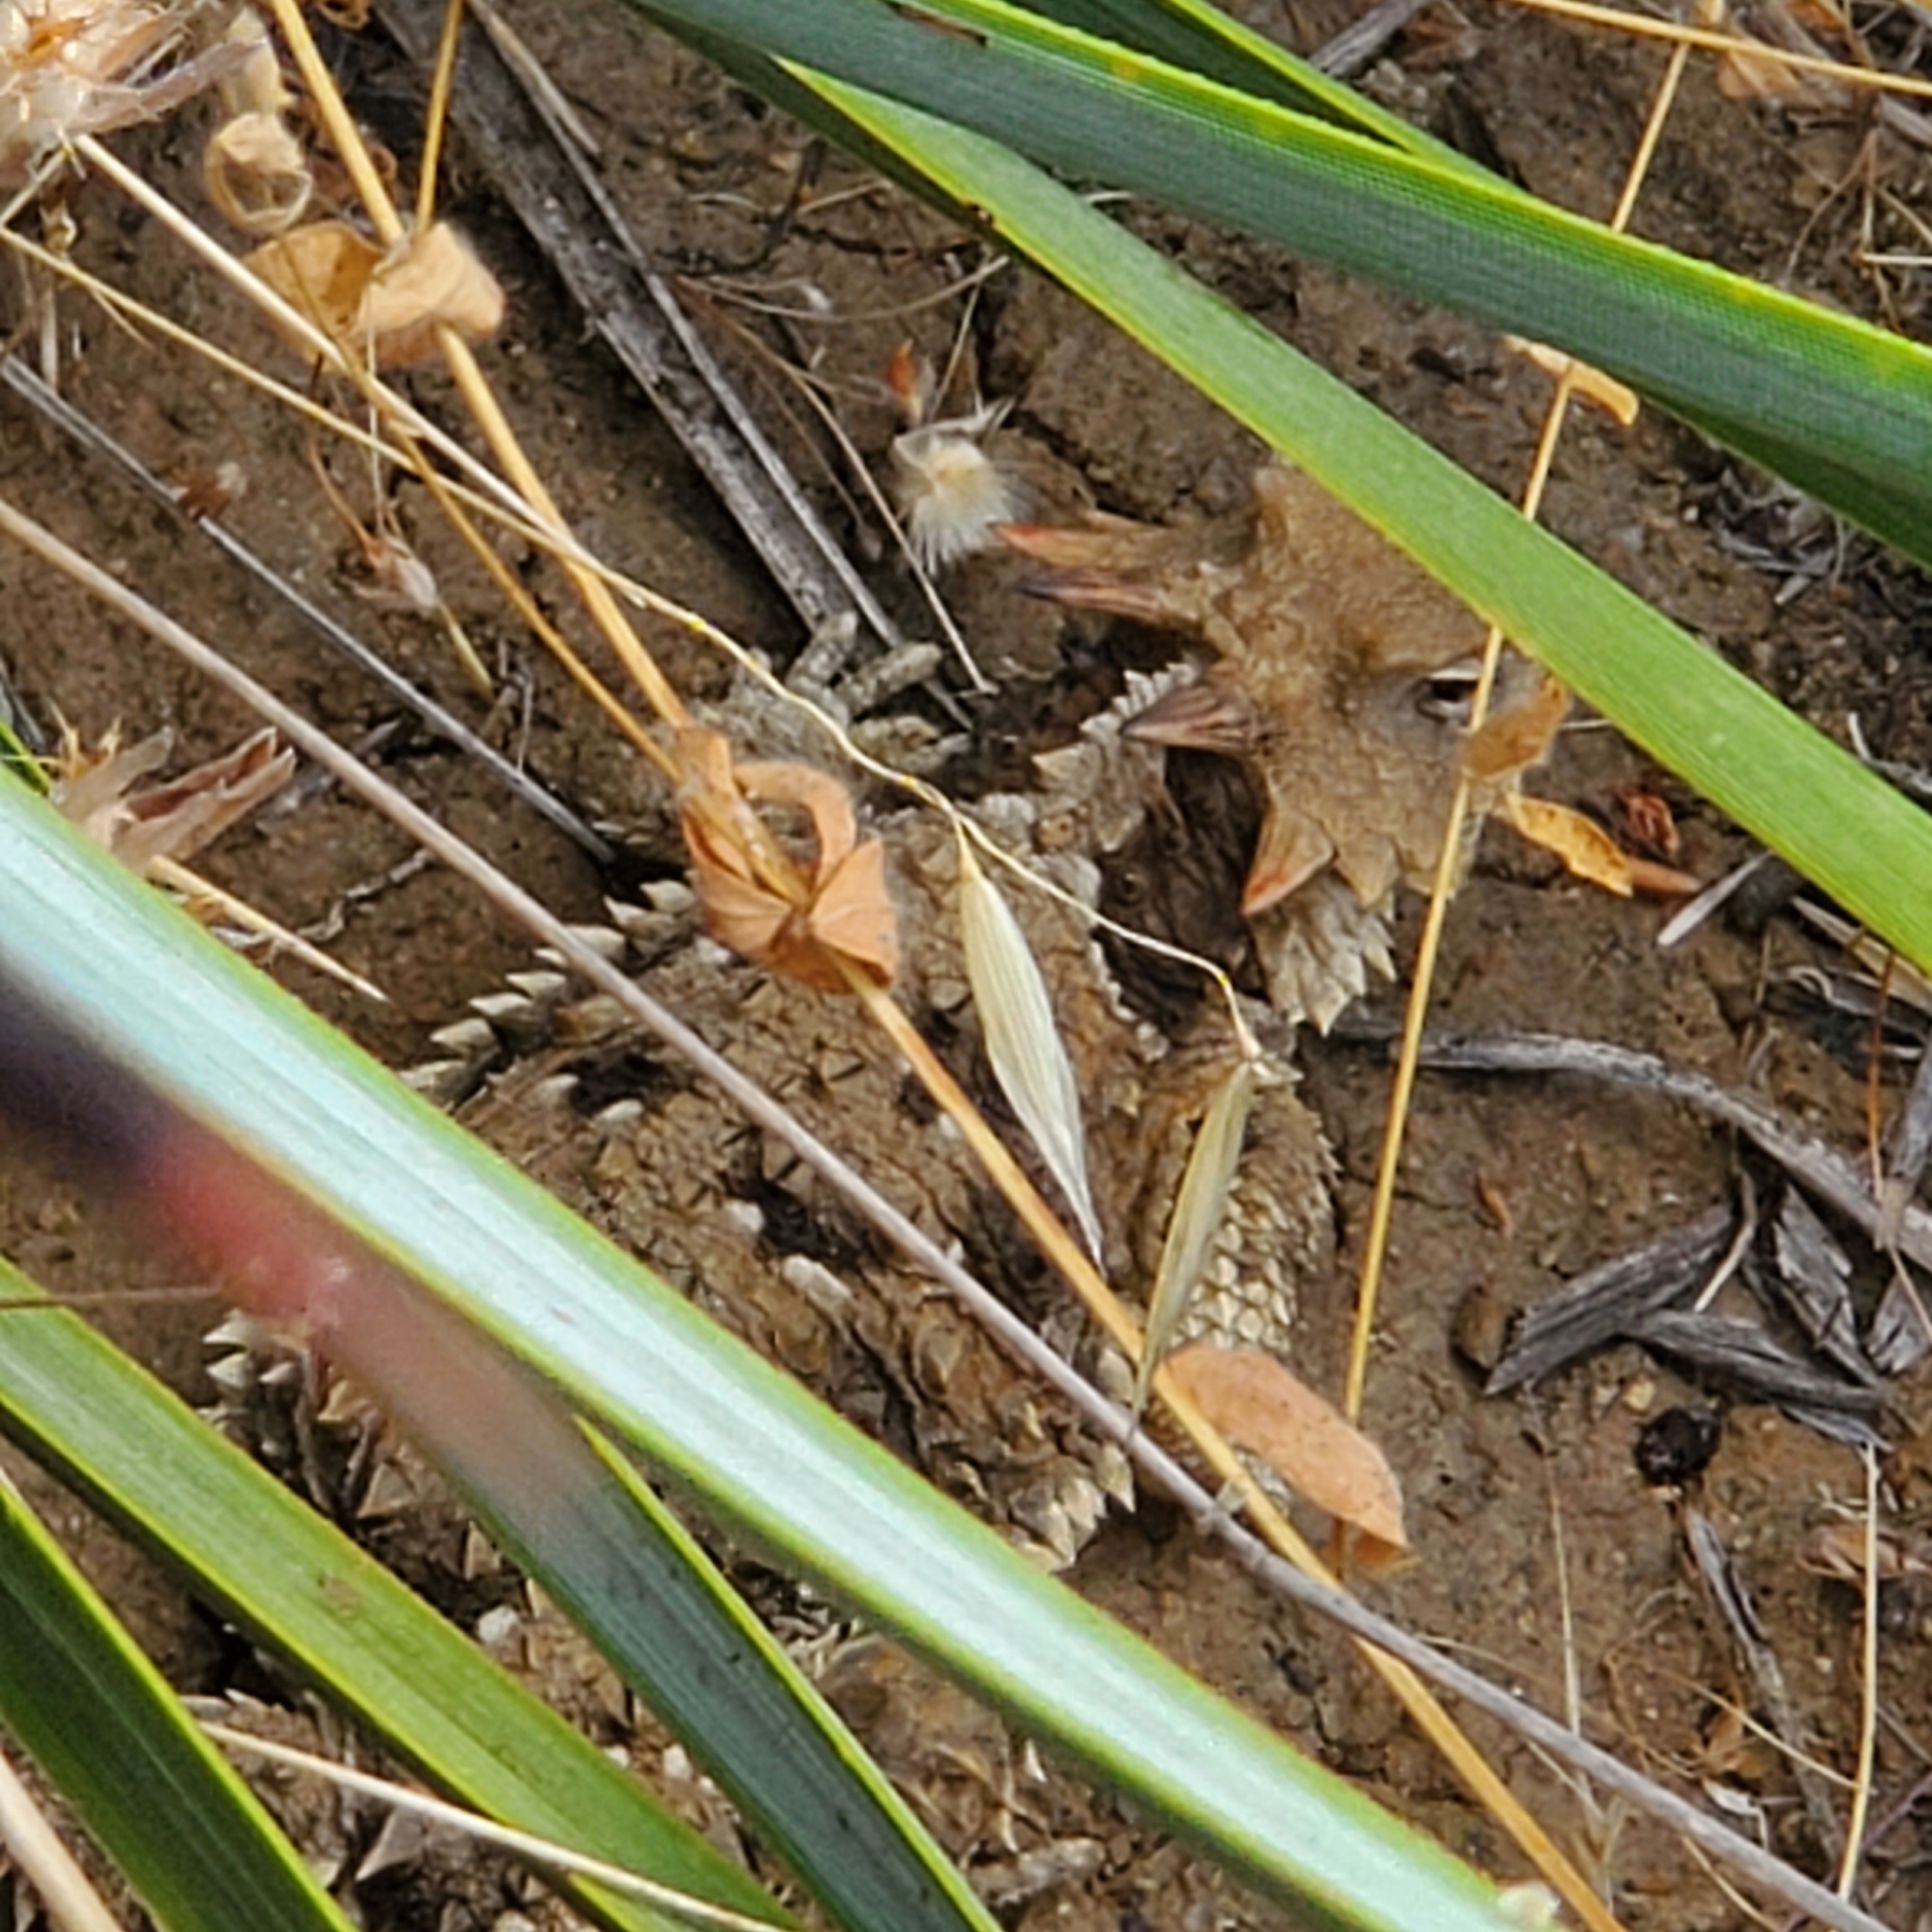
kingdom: Animalia
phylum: Chordata
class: Squamata
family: Phrynosomatidae
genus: Phrynosoma
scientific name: Phrynosoma blainvillii
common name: San diego horned lizard
